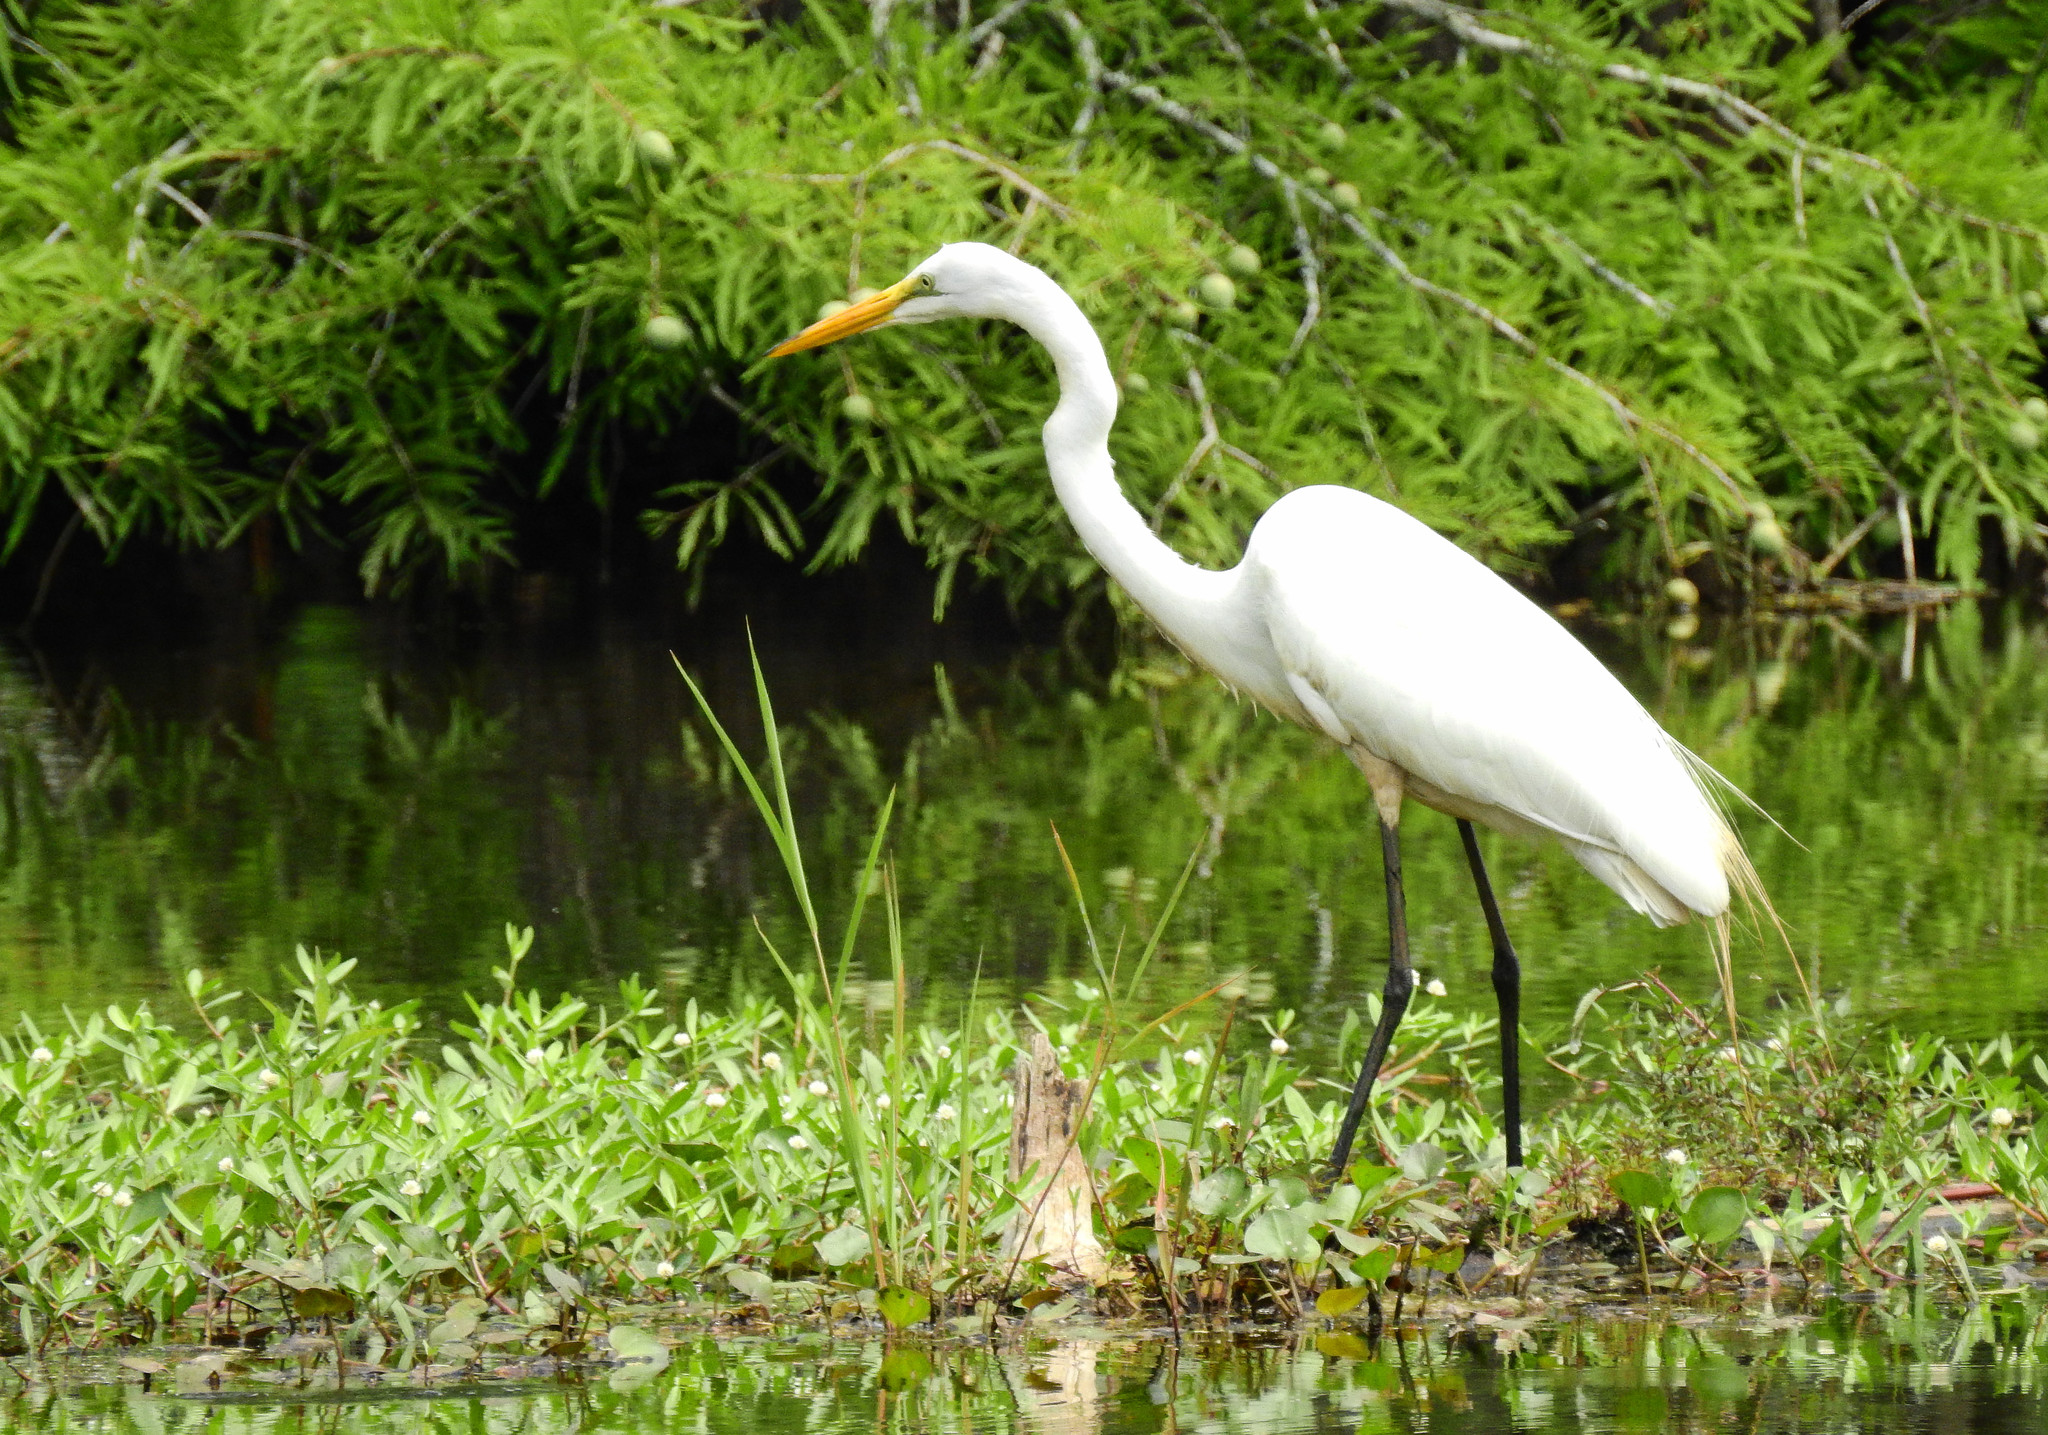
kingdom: Animalia
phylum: Chordata
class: Aves
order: Pelecaniformes
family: Ardeidae
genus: Ardea
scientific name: Ardea alba
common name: Great egret
